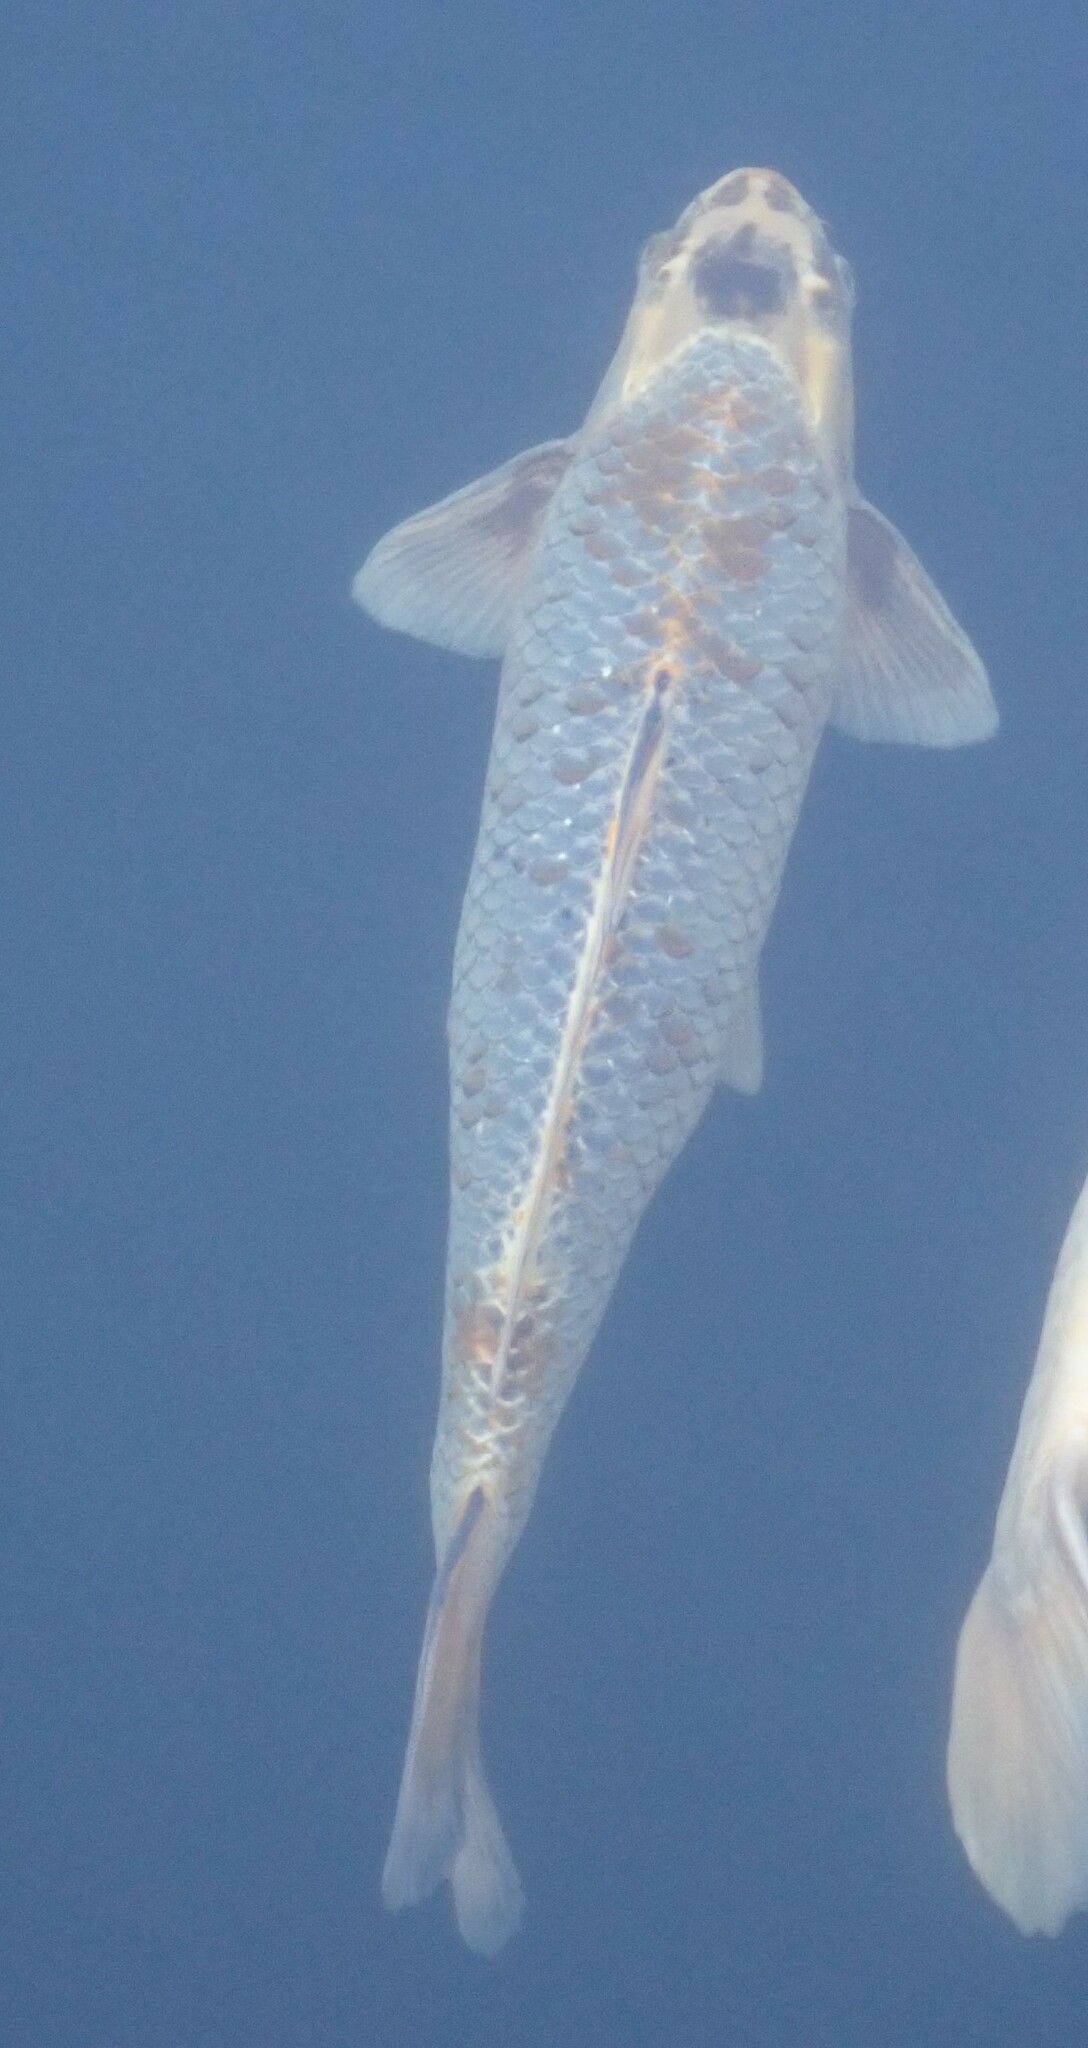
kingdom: Animalia
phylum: Chordata
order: Cypriniformes
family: Cyprinidae
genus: Cyprinus
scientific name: Cyprinus rubrofuscus
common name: Koi
